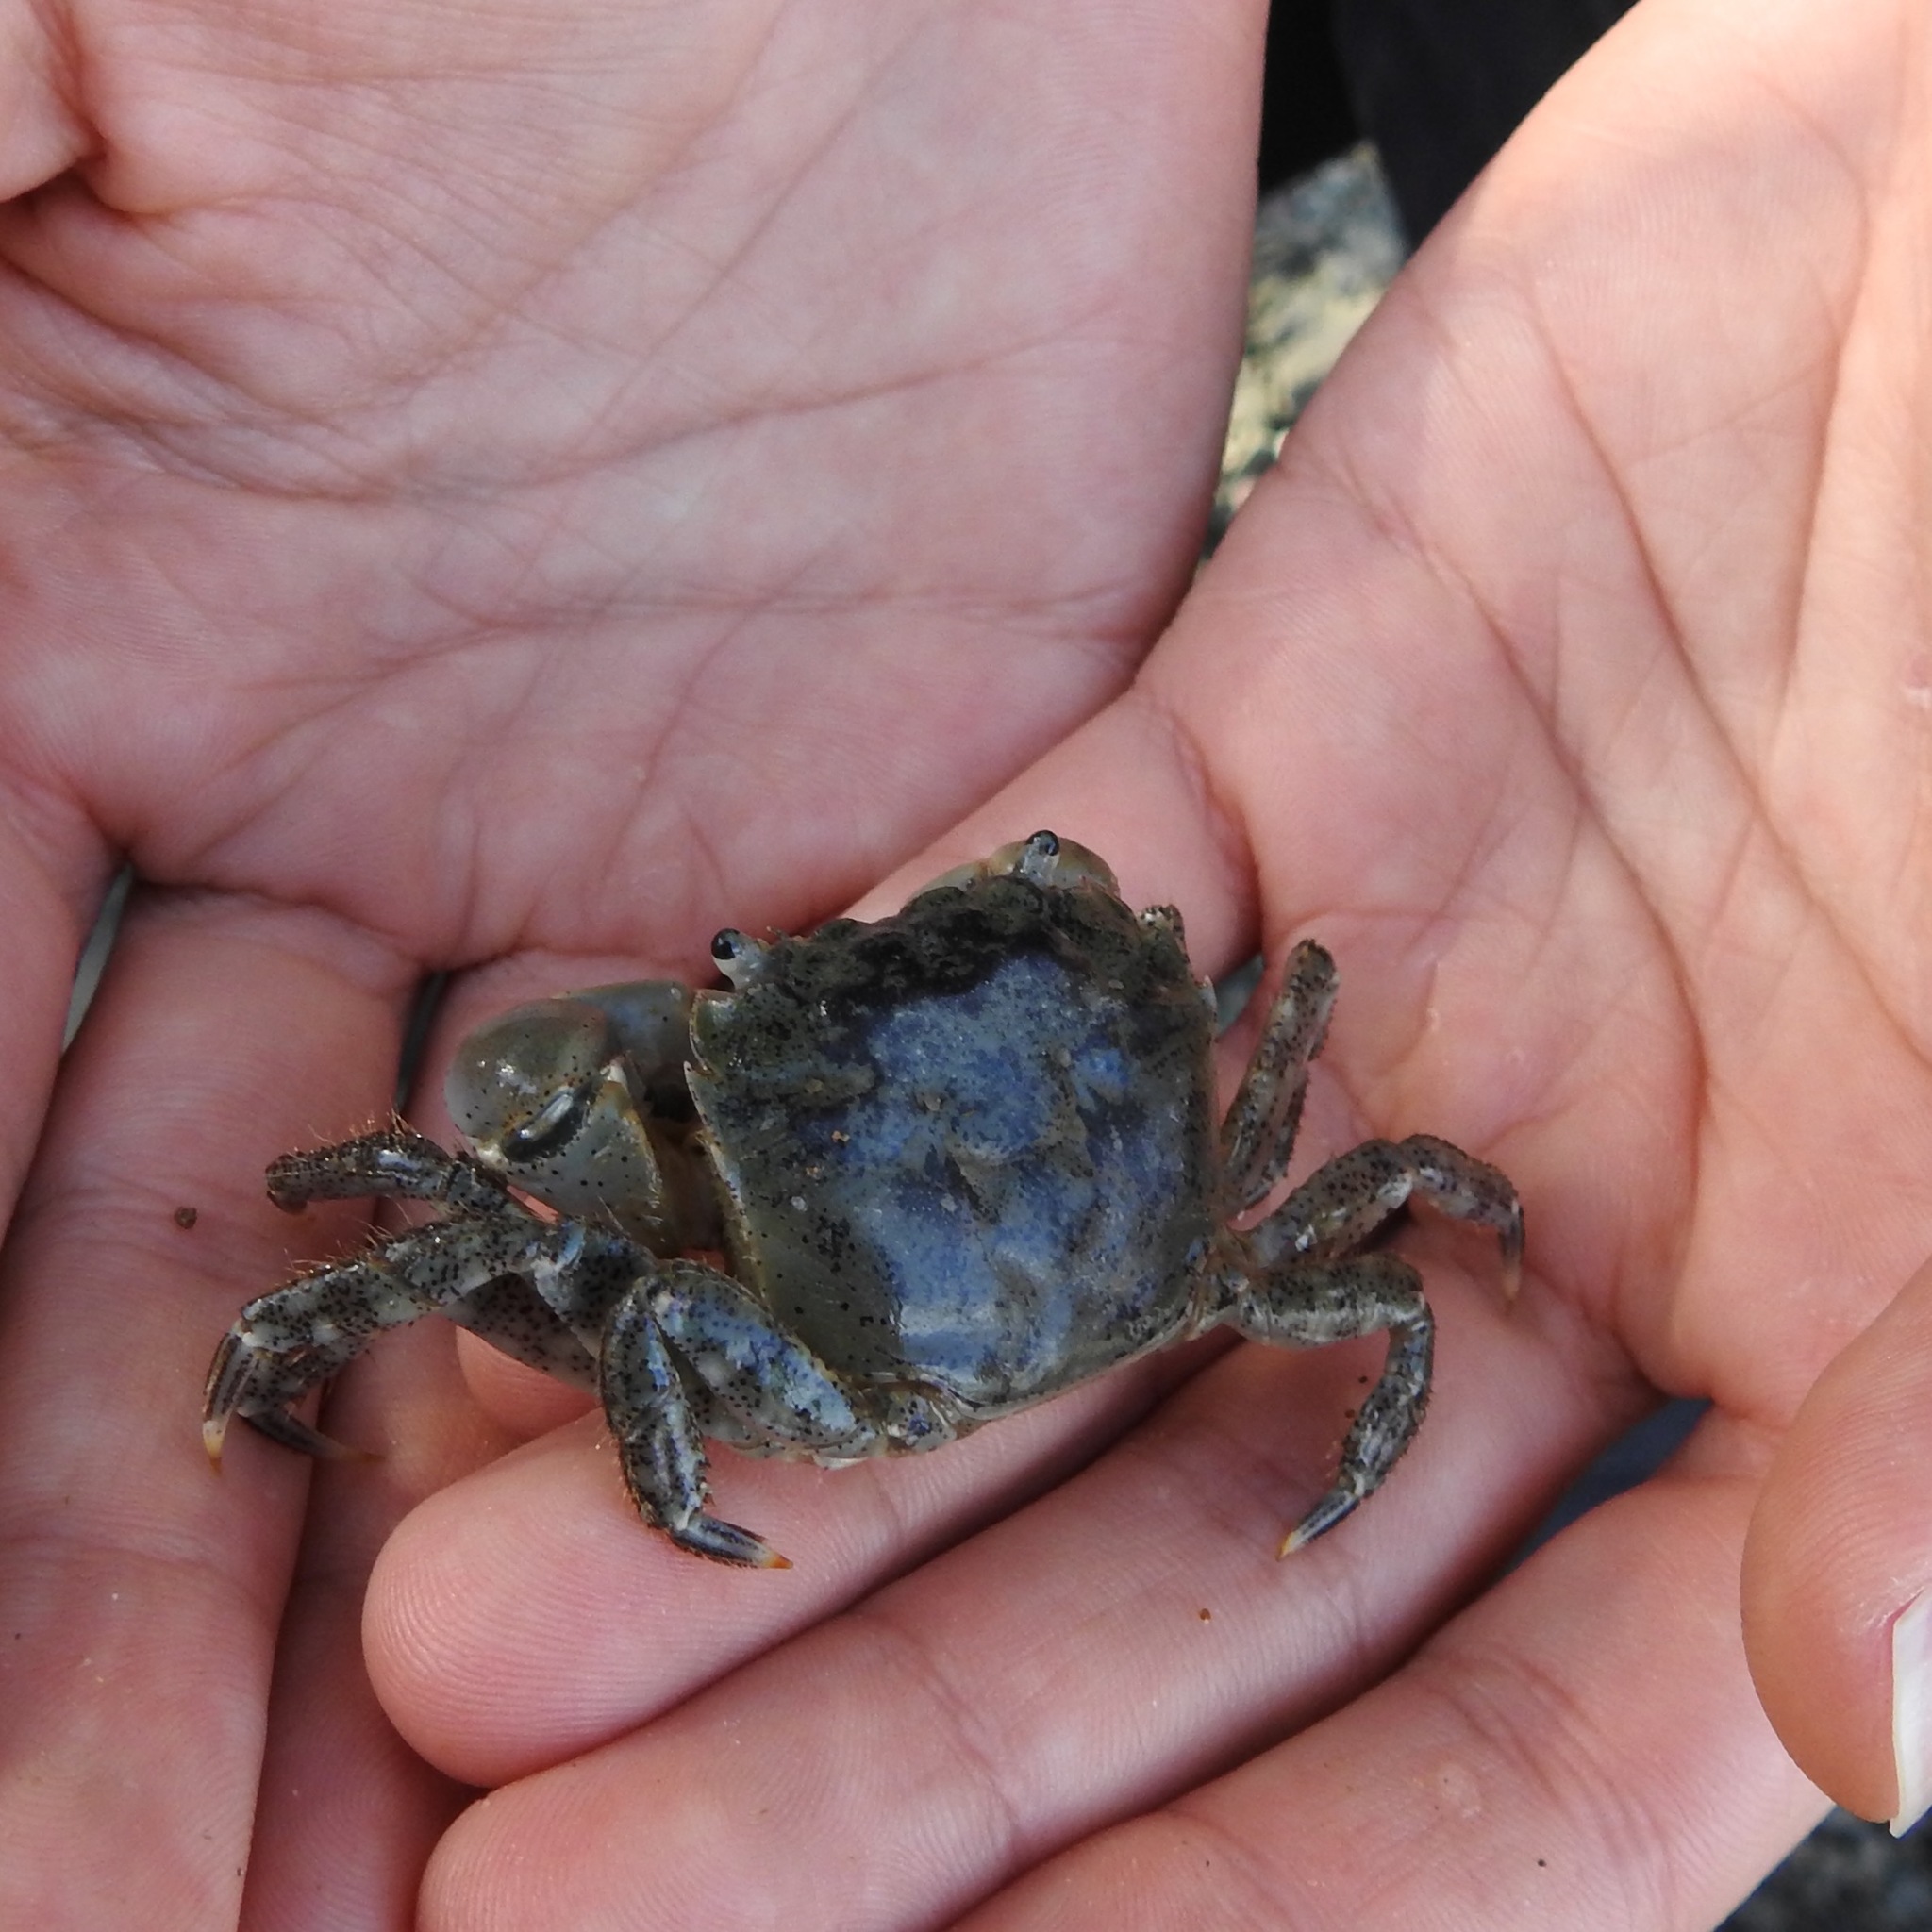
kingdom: Animalia
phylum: Arthropoda
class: Malacostraca
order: Decapoda
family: Varunidae
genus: Hemigrapsus
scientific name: Hemigrapsus oregonensis
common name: Yellow shore crab
